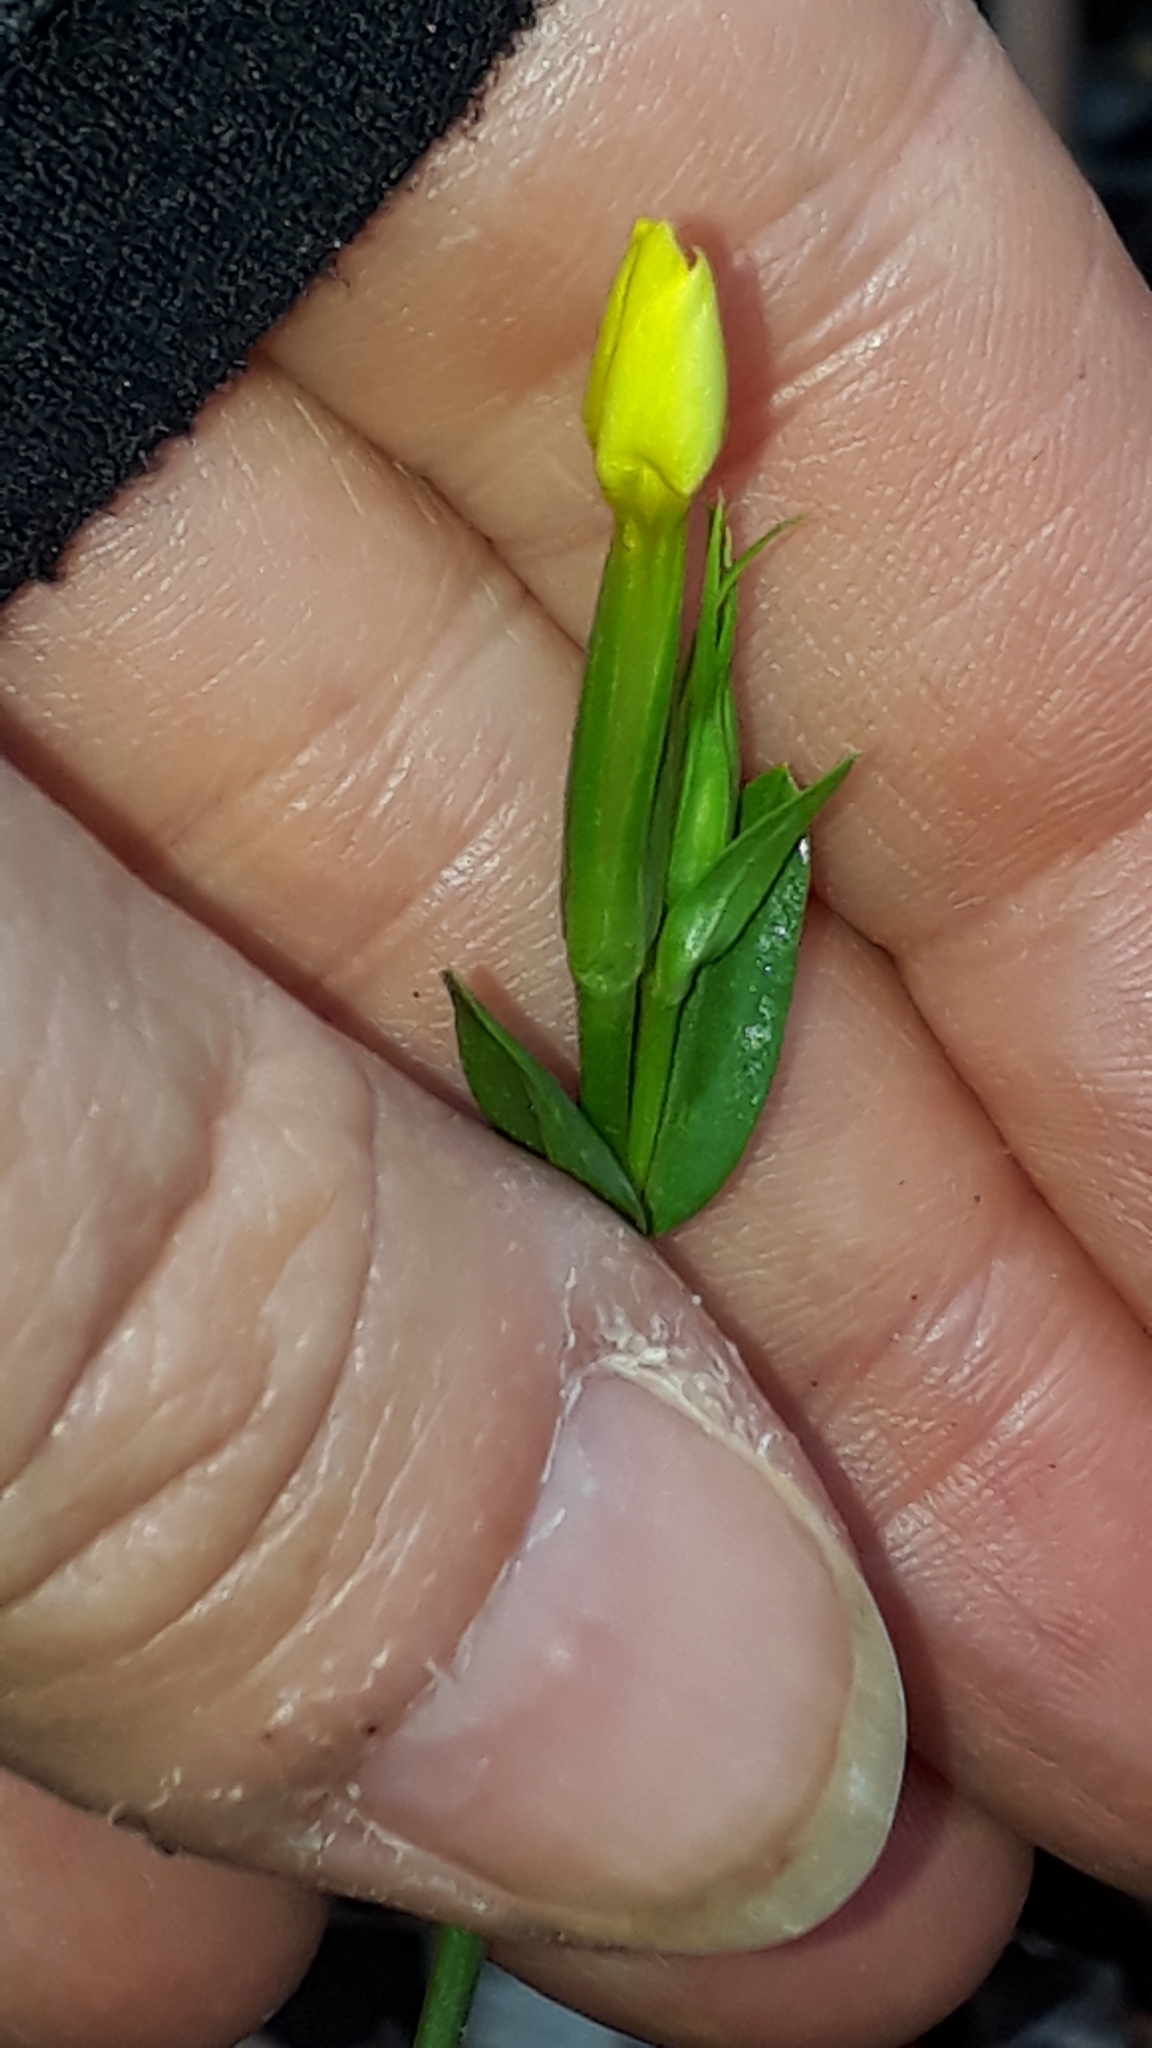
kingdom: Plantae
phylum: Tracheophyta
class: Magnoliopsida
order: Gentianales
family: Gentianaceae
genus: Centaurium
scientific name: Centaurium maritimum
